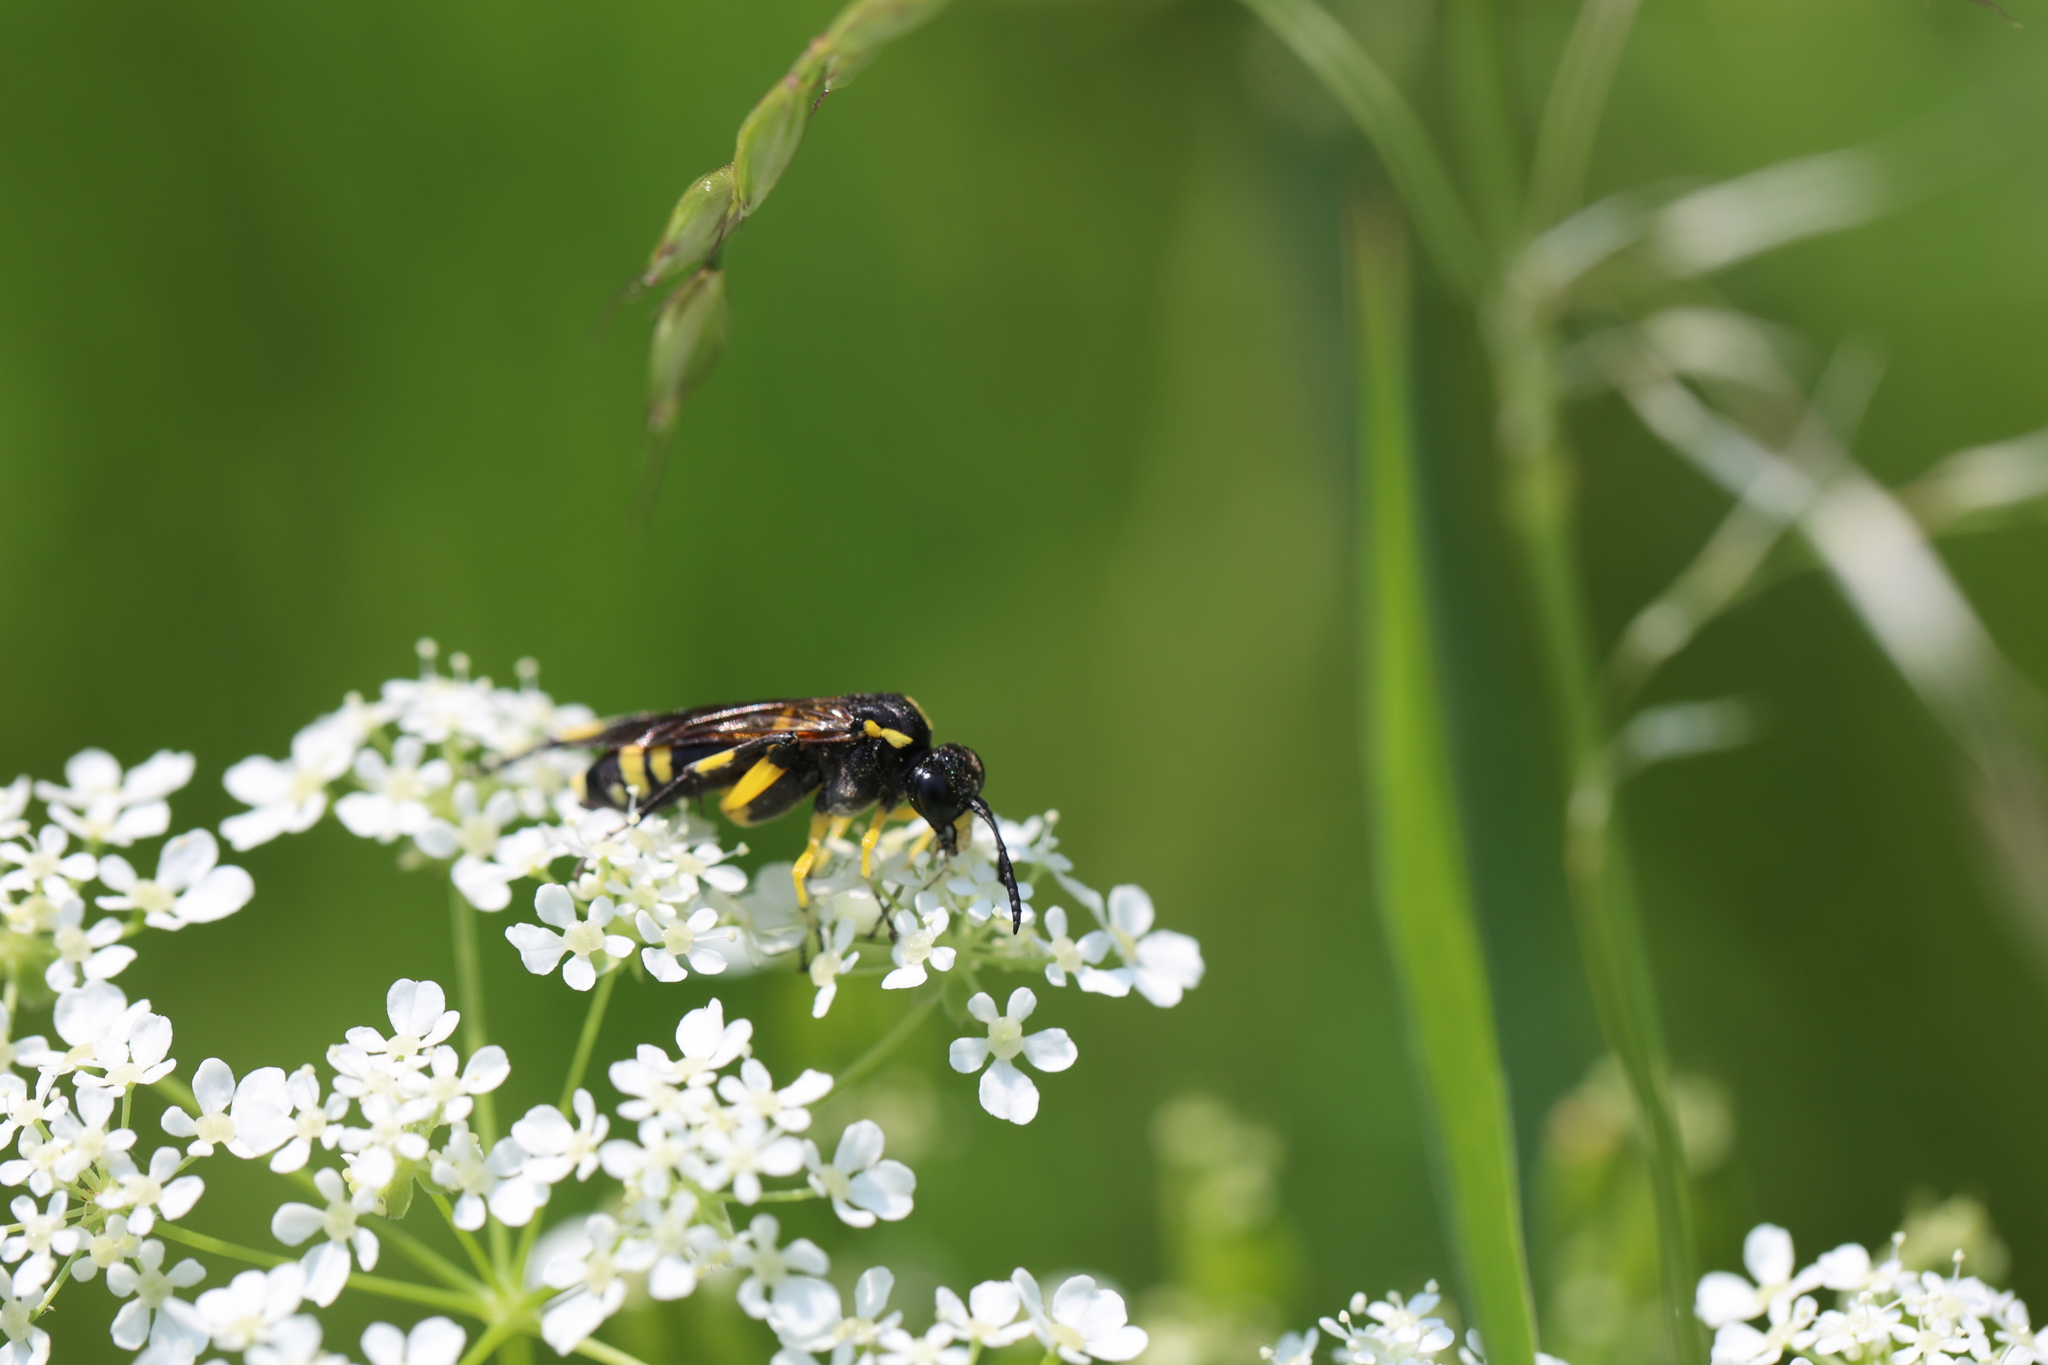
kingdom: Animalia
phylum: Arthropoda
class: Insecta
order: Hymenoptera
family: Tenthredinidae
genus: Macrophya
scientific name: Macrophya montana
